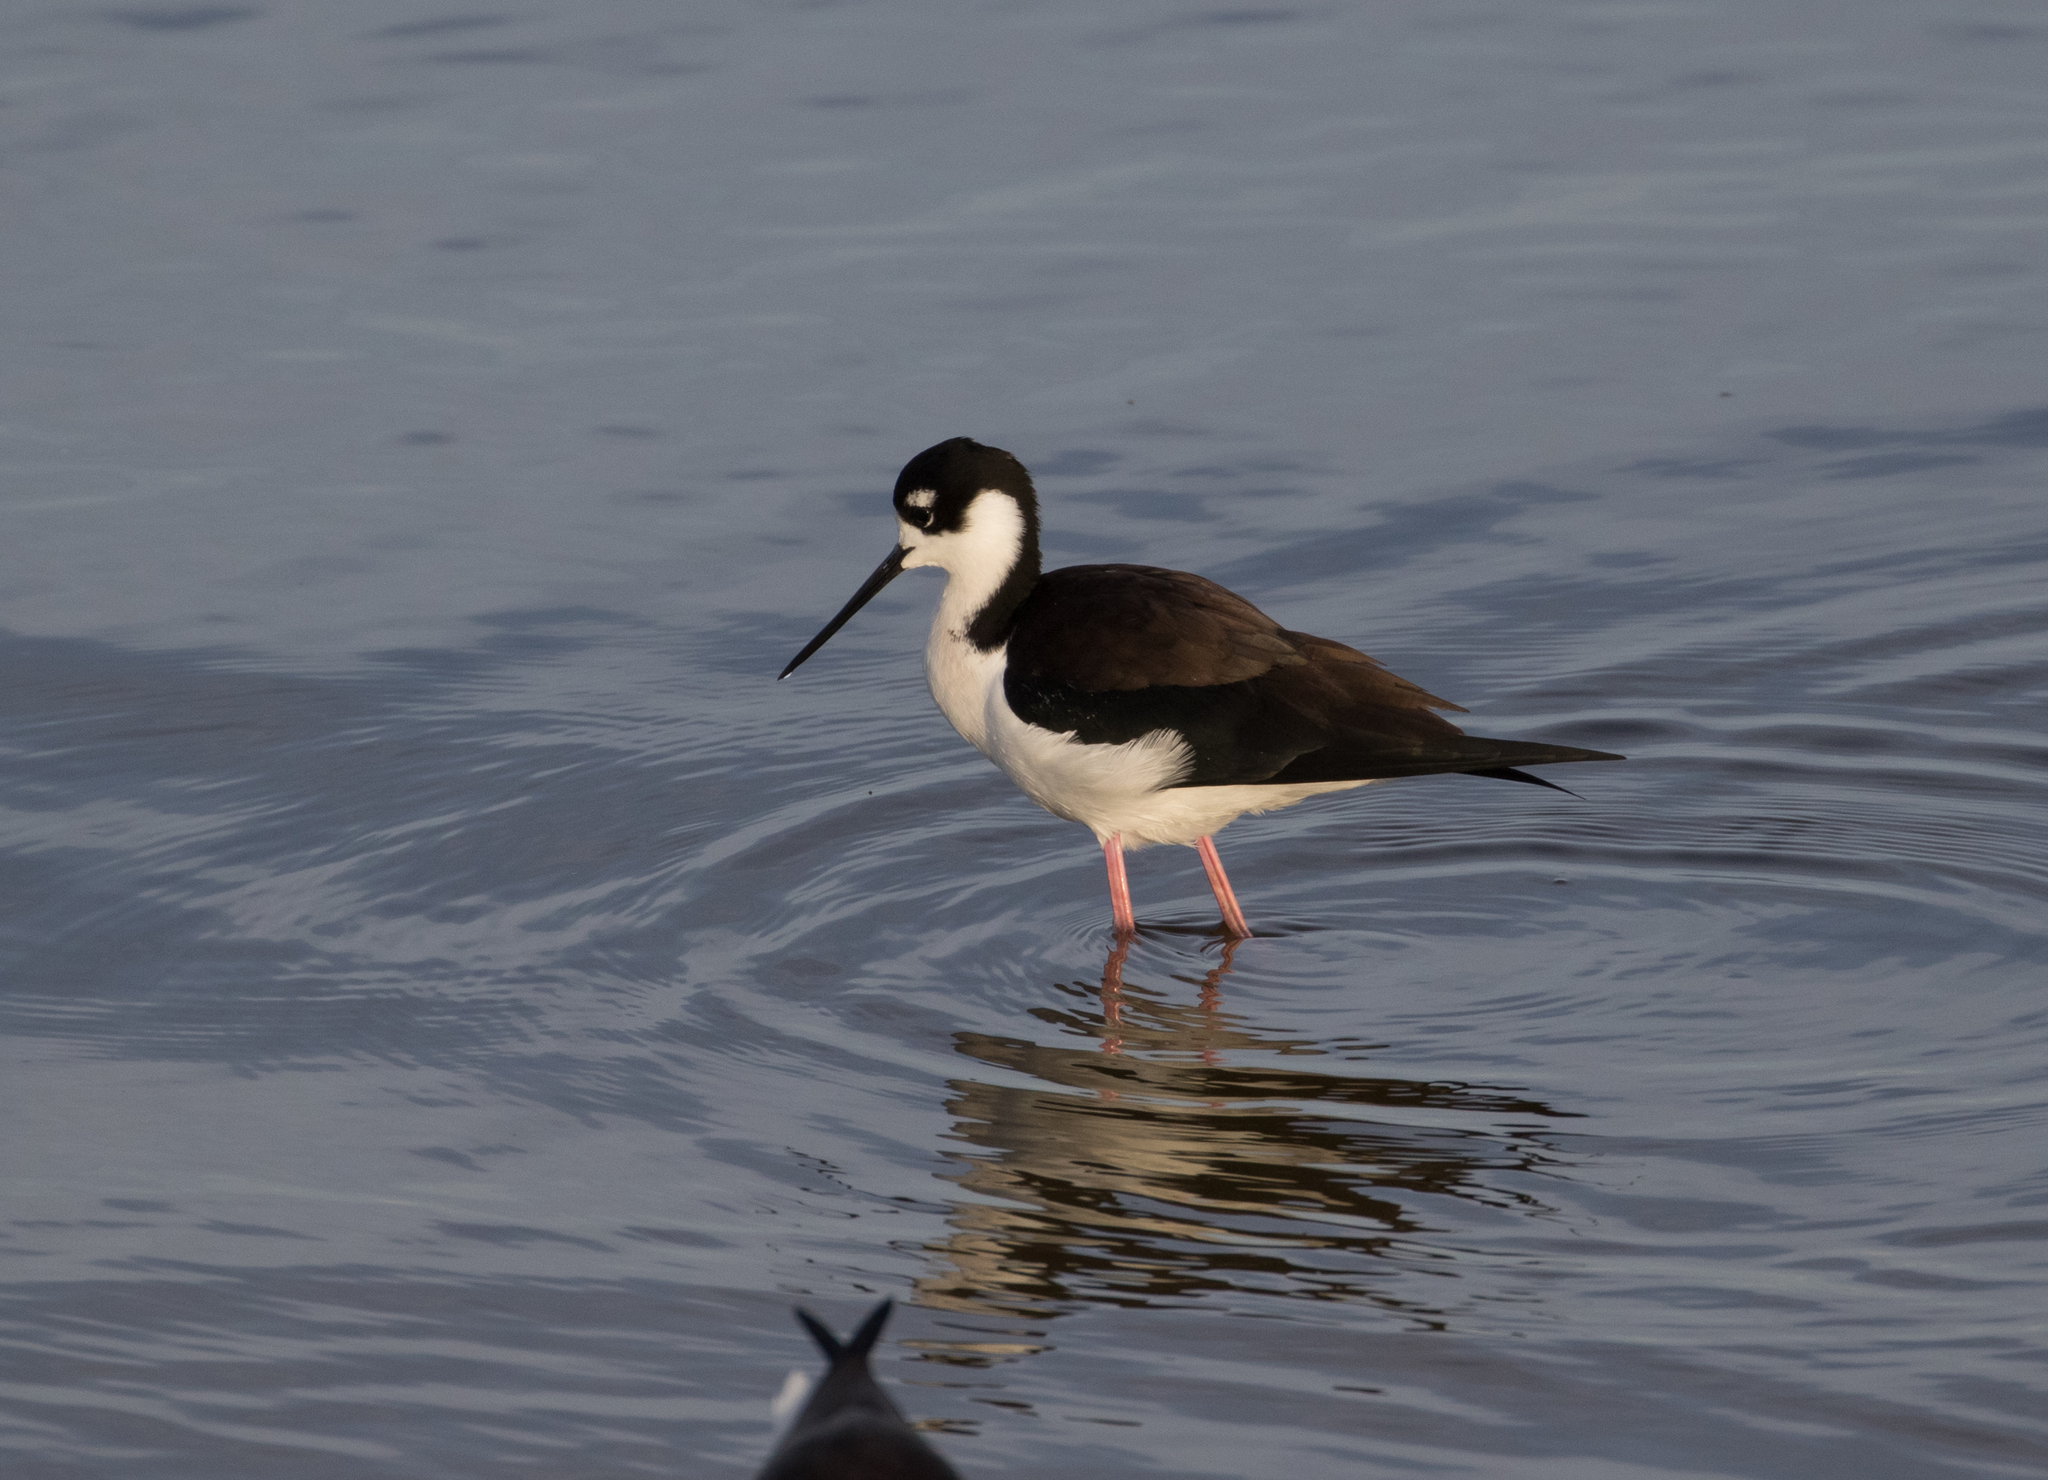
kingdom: Animalia
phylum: Chordata
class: Aves
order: Charadriiformes
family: Recurvirostridae
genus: Himantopus
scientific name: Himantopus mexicanus
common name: Black-necked stilt
